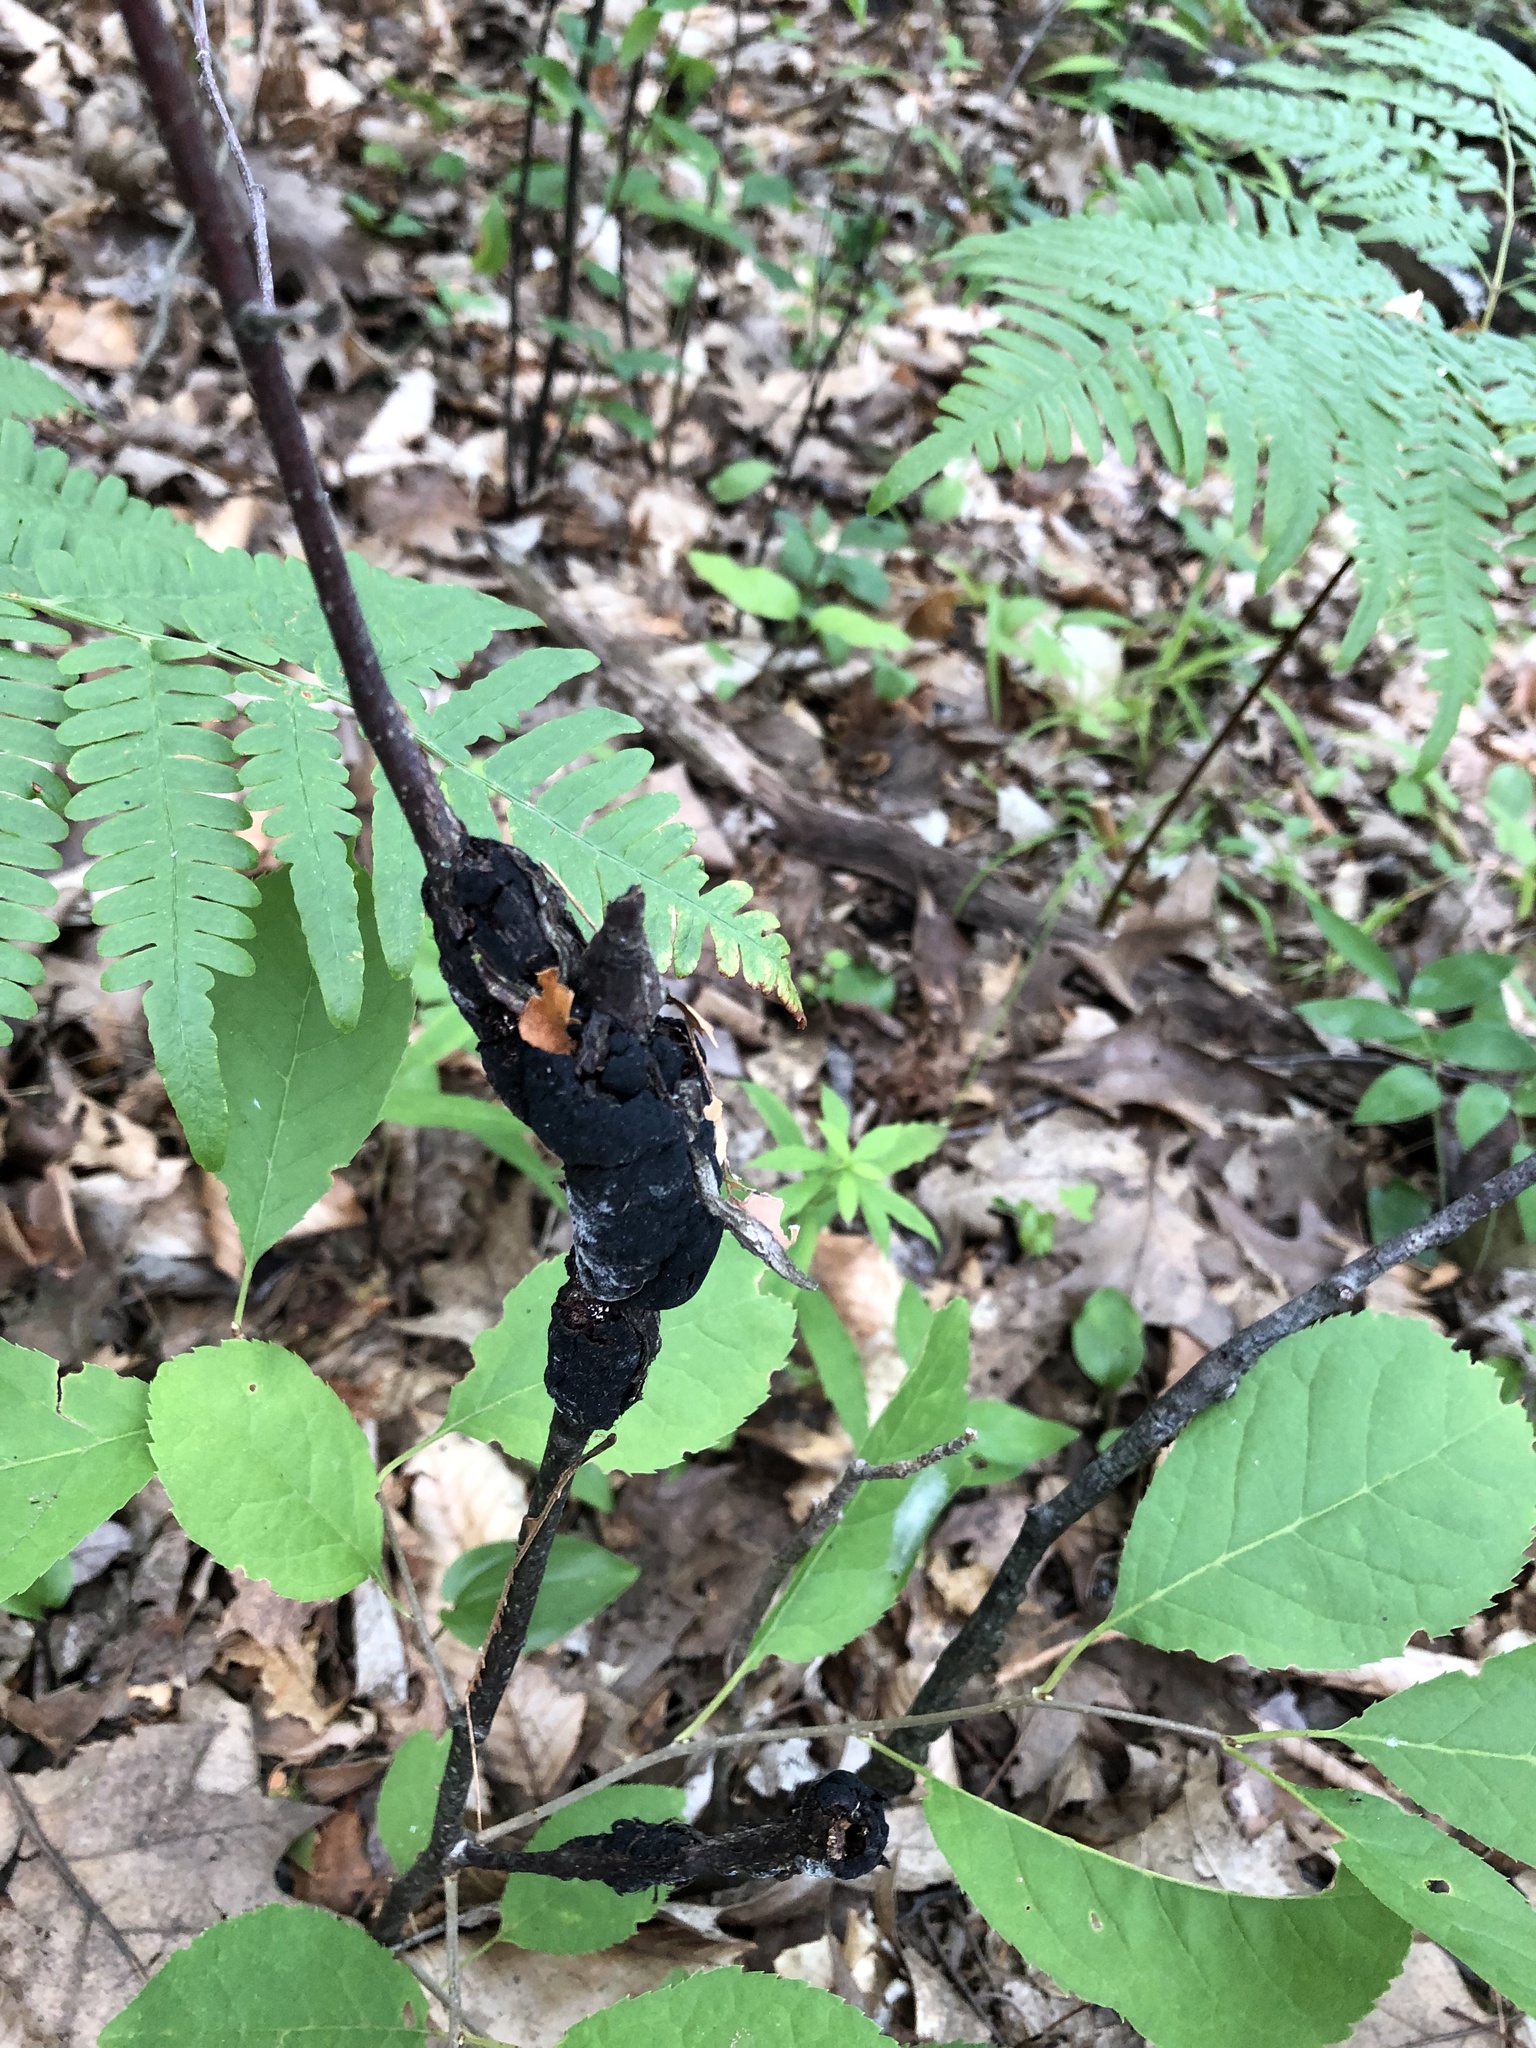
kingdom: Fungi
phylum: Ascomycota
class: Dothideomycetes
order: Venturiales
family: Venturiaceae
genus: Apiosporina
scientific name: Apiosporina morbosa
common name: Black knot
